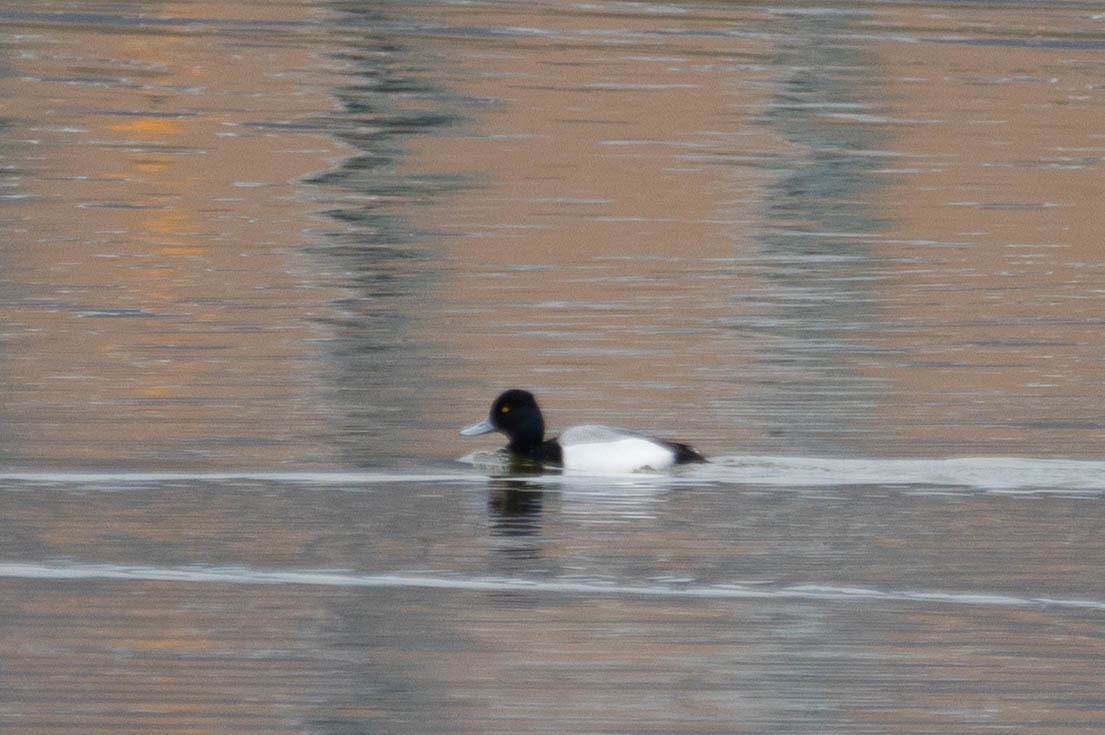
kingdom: Animalia
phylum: Chordata
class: Aves
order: Anseriformes
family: Anatidae
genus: Aythya
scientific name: Aythya affinis
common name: Lesser scaup
